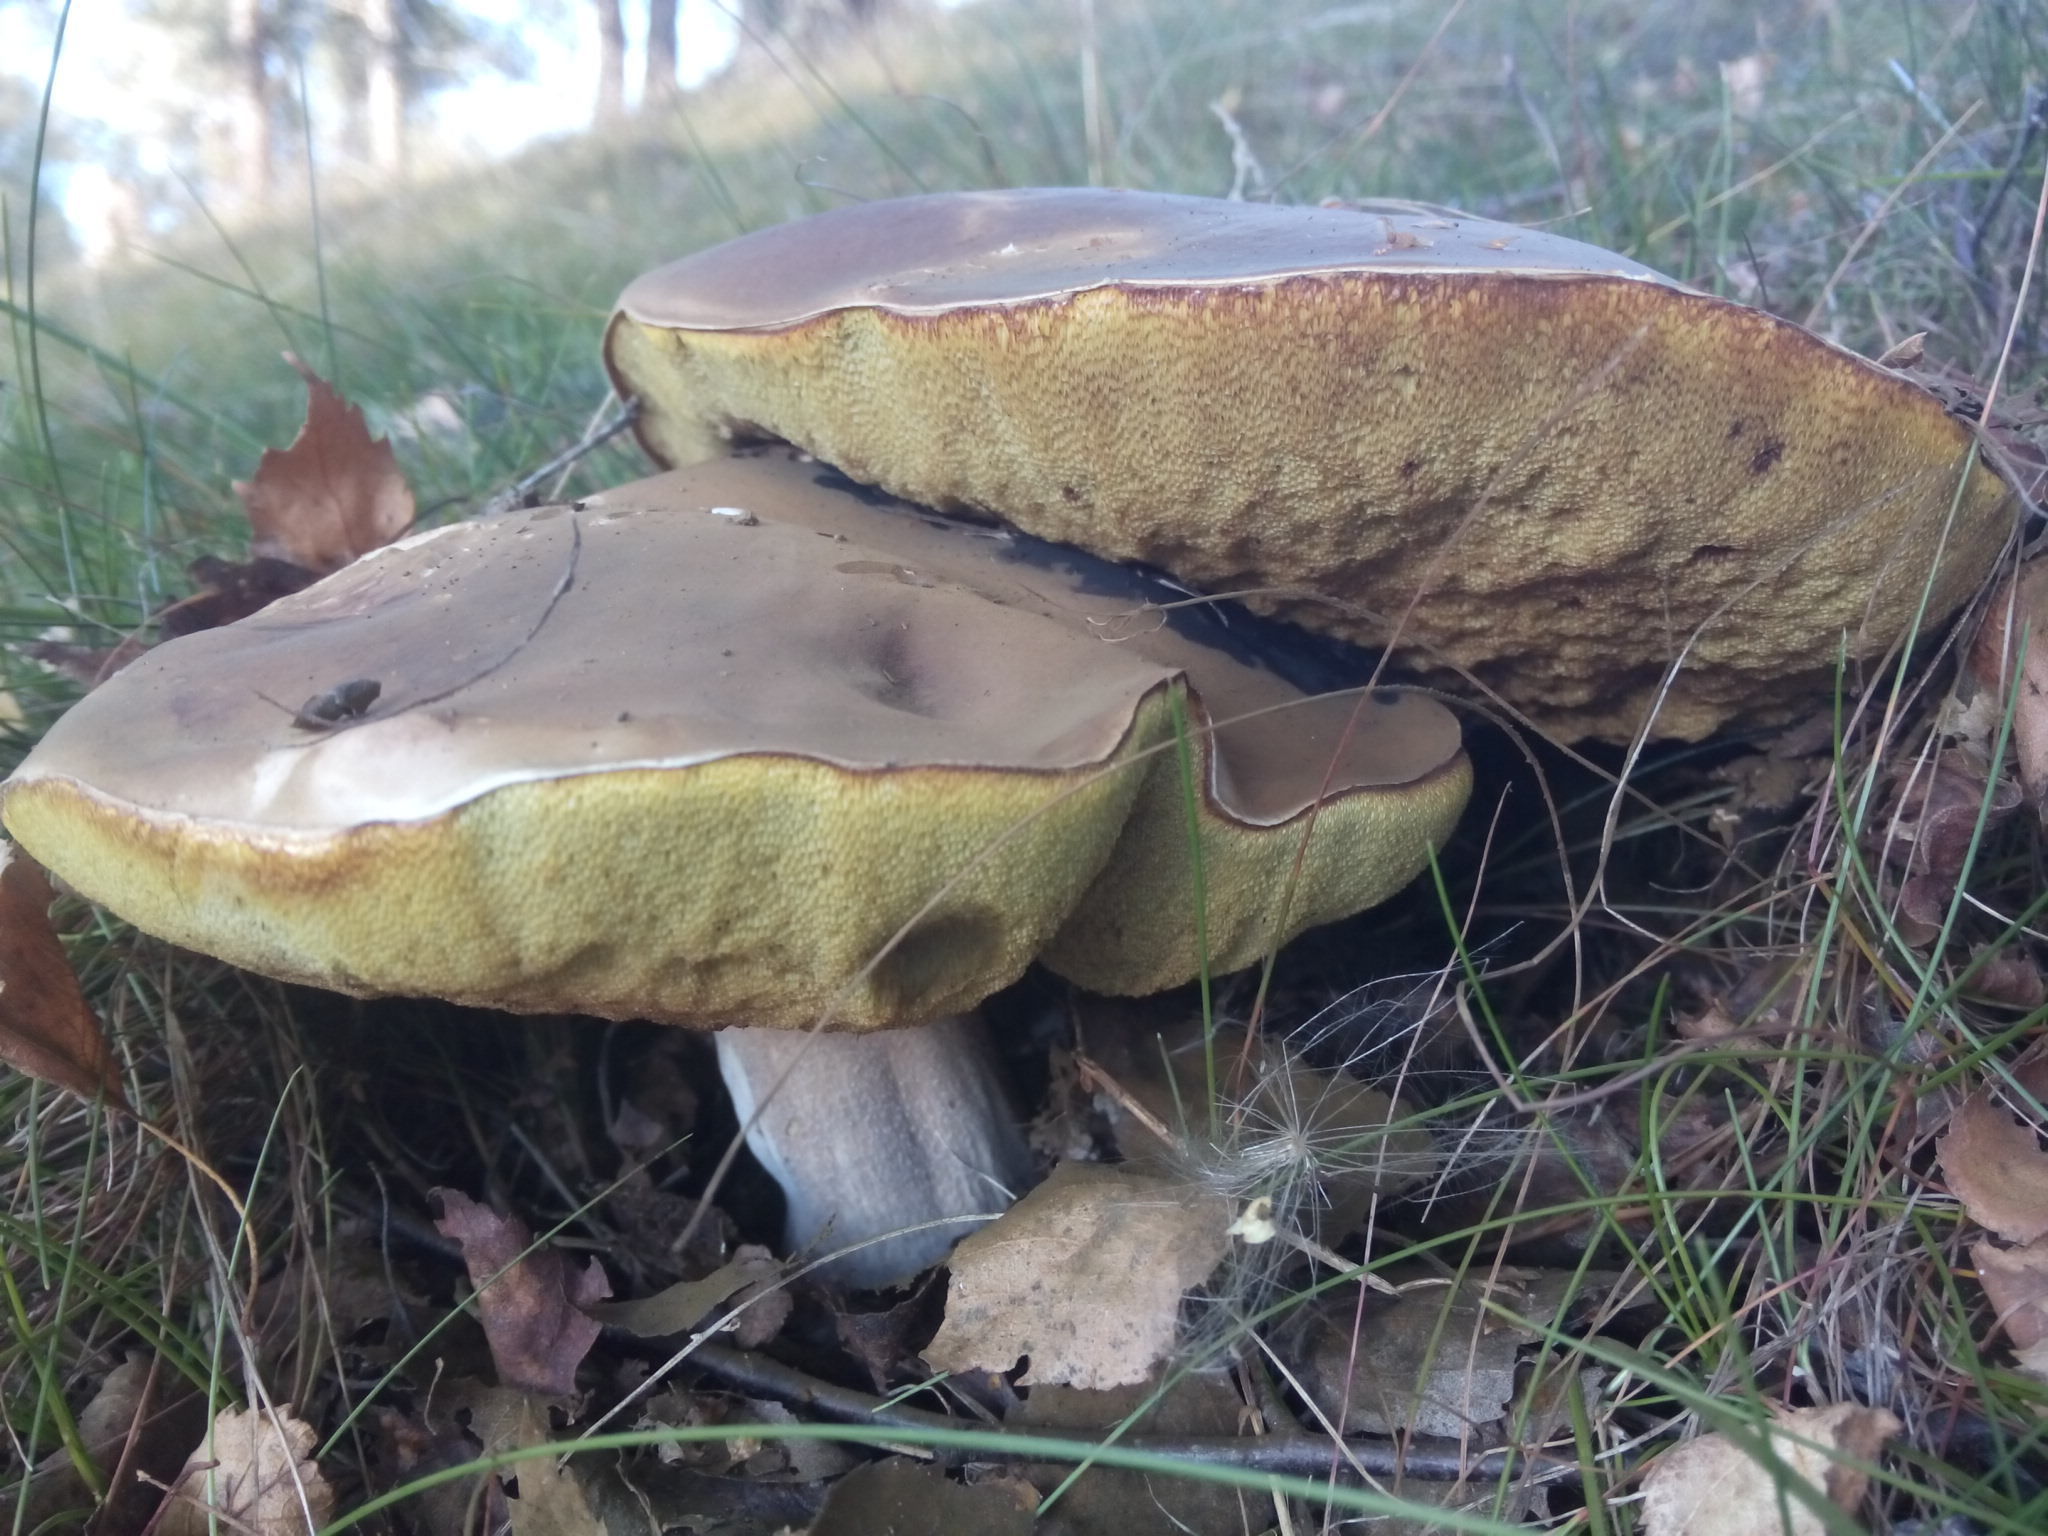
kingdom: Fungi
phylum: Basidiomycota
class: Agaricomycetes
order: Boletales
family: Boletaceae
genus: Boletus
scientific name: Boletus edulis
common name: Cep
